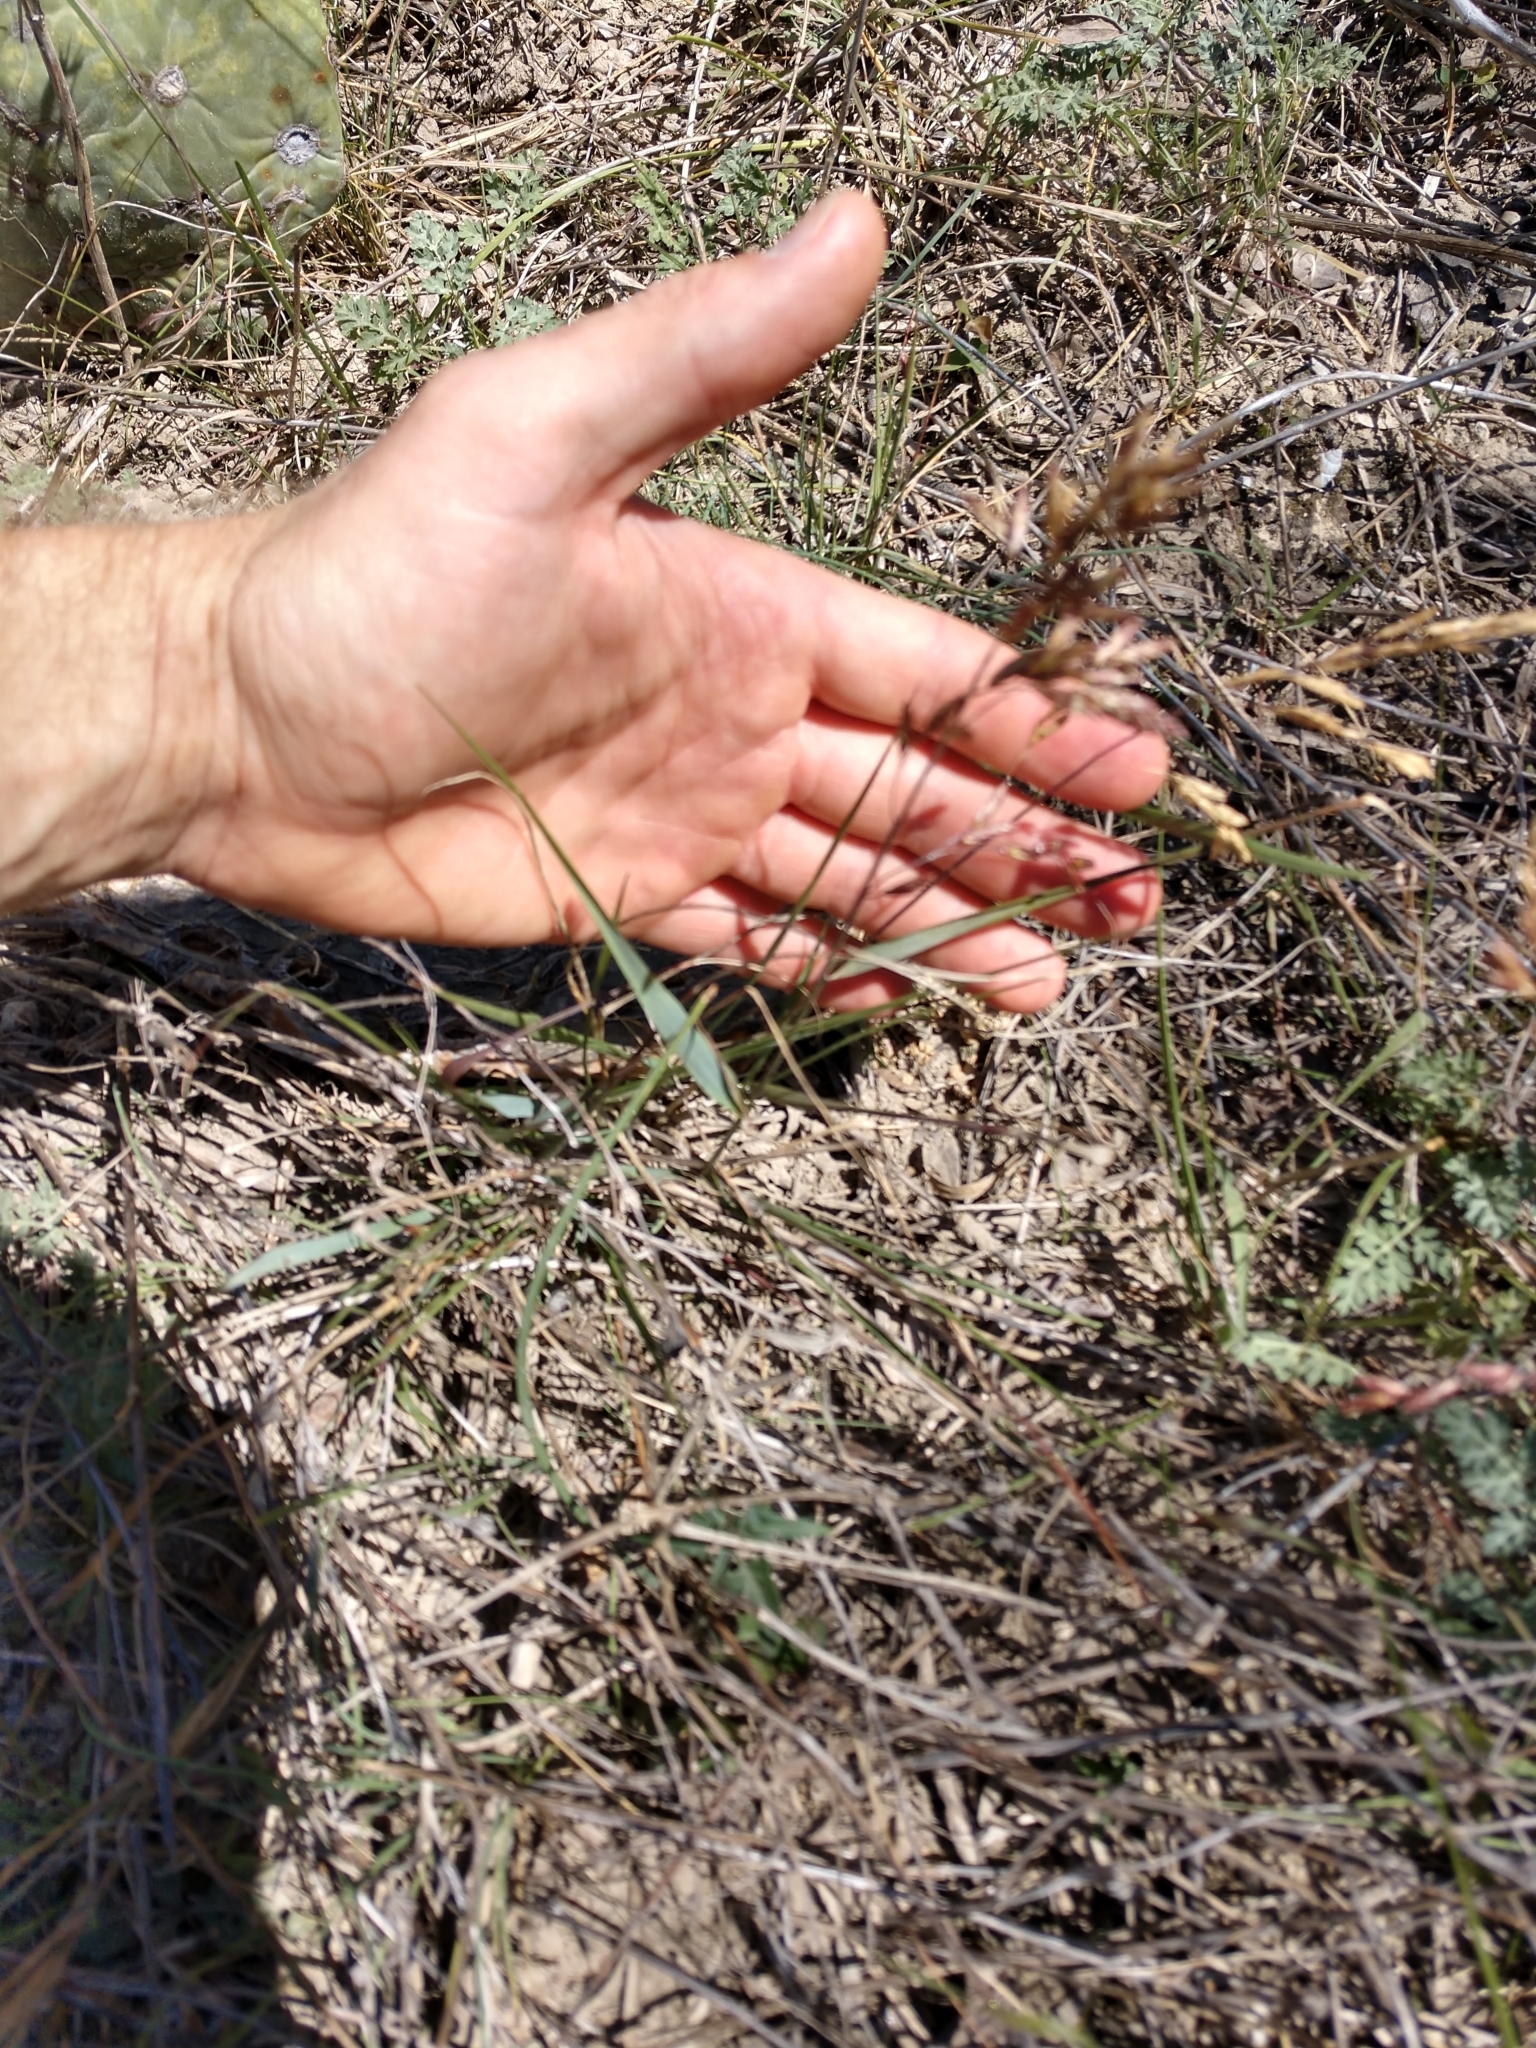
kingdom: Plantae
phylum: Tracheophyta
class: Liliopsida
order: Poales
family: Poaceae
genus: Tridens
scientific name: Tridens texanus
